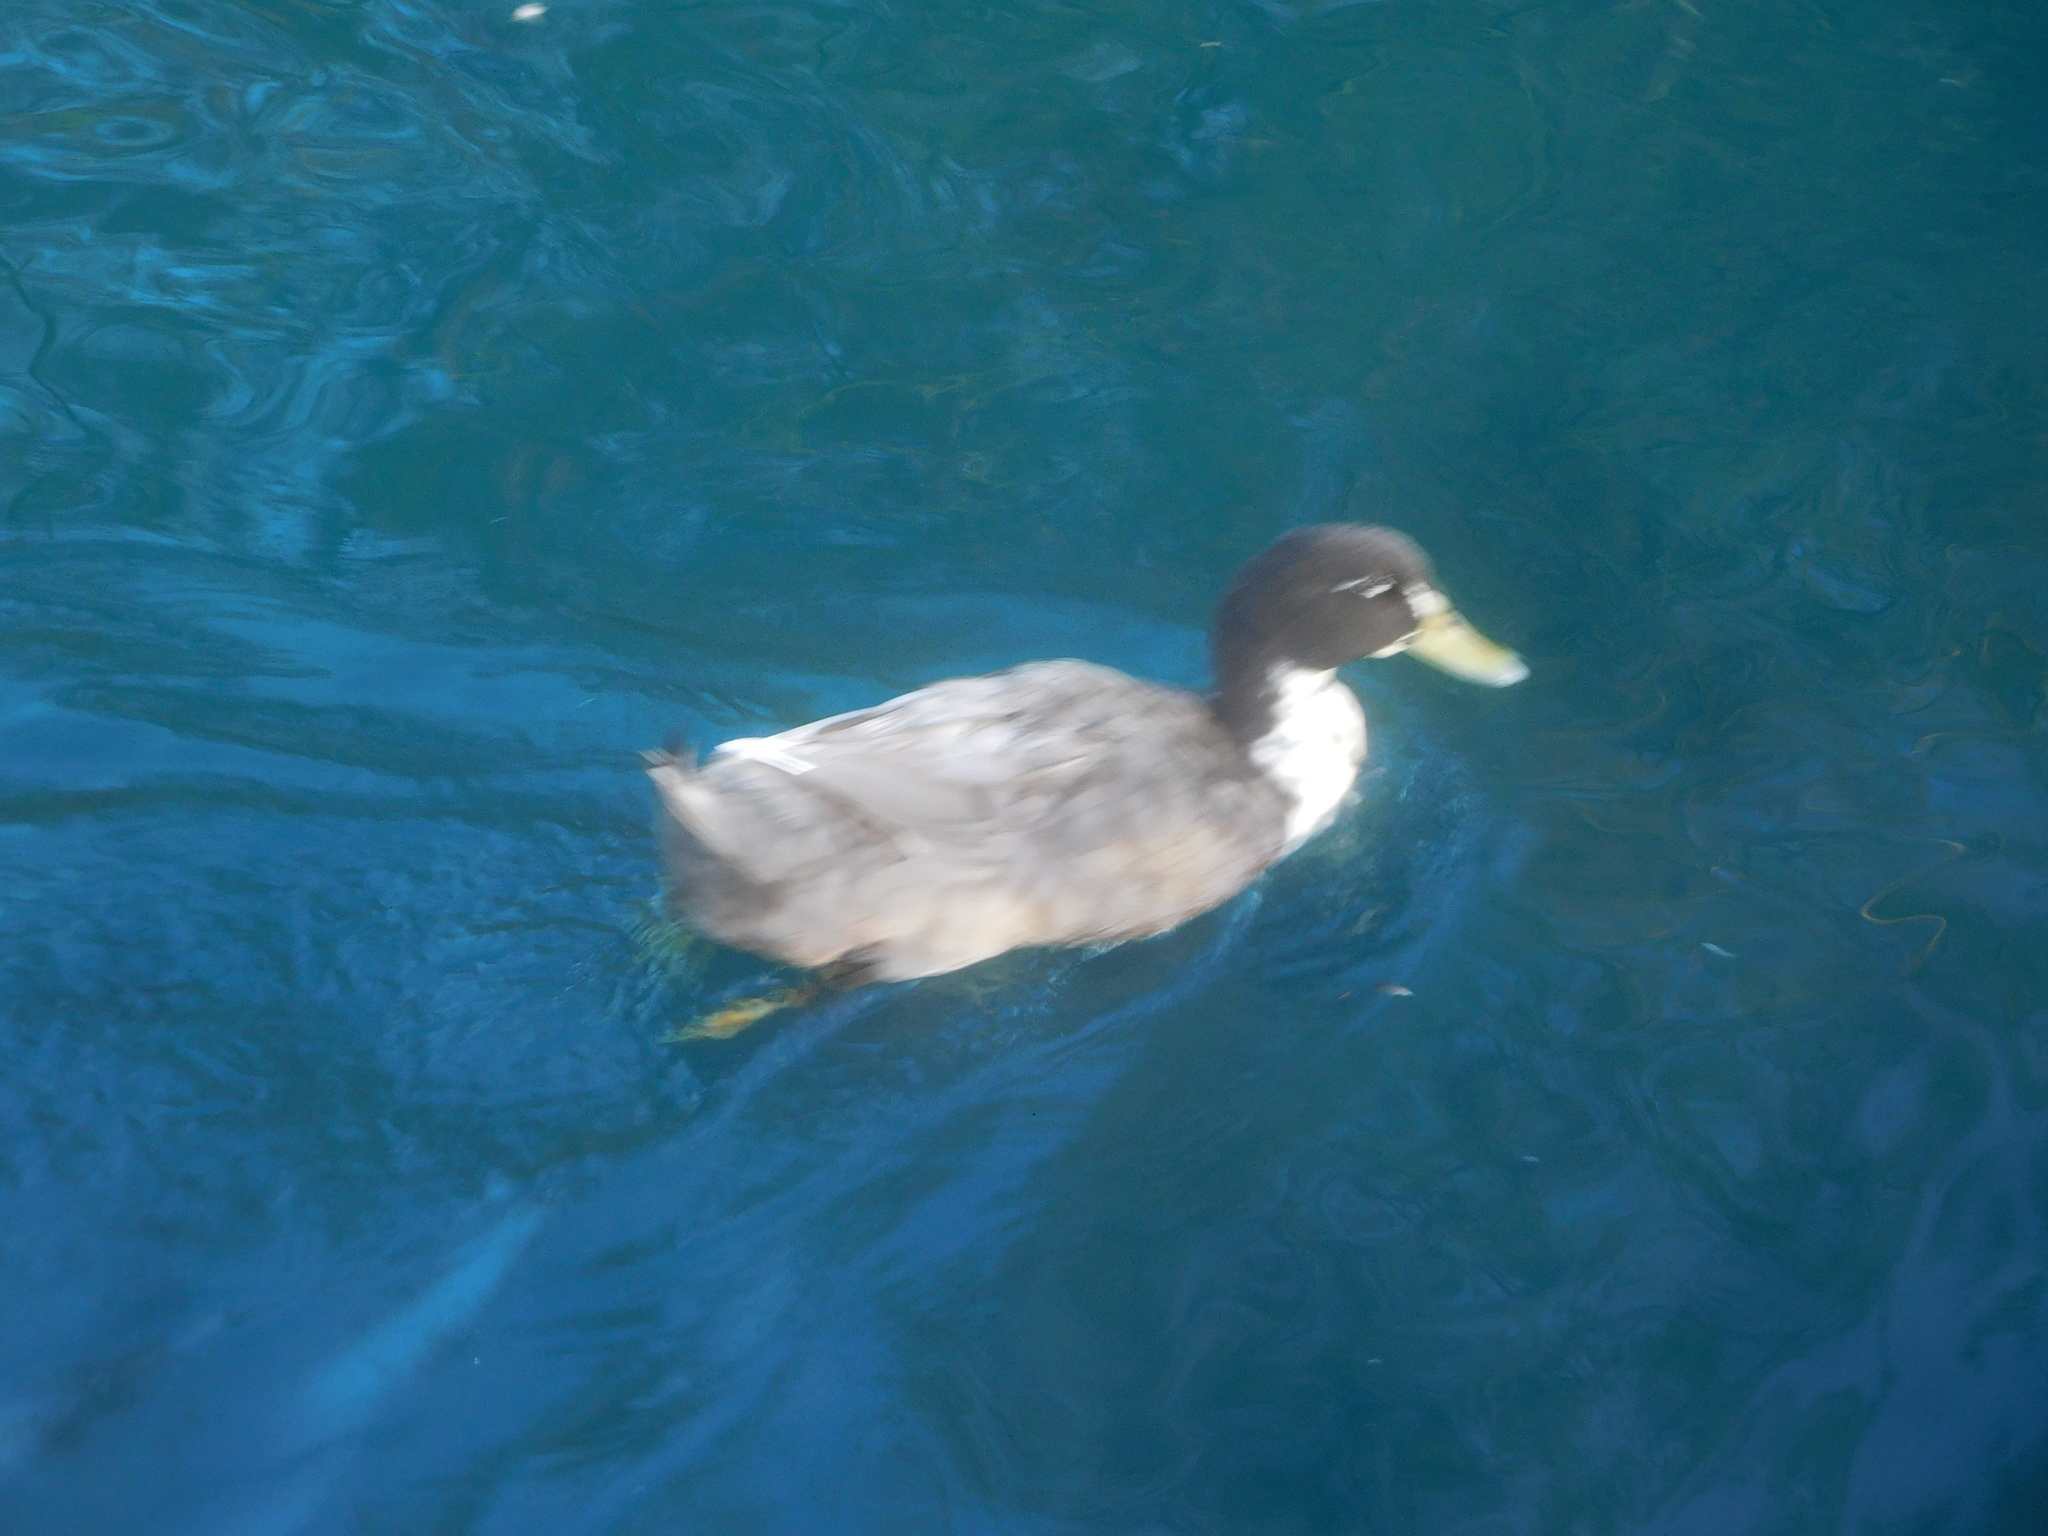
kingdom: Animalia
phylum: Chordata
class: Aves
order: Anseriformes
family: Anatidae
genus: Anas
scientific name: Anas platyrhynchos
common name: Mallard
